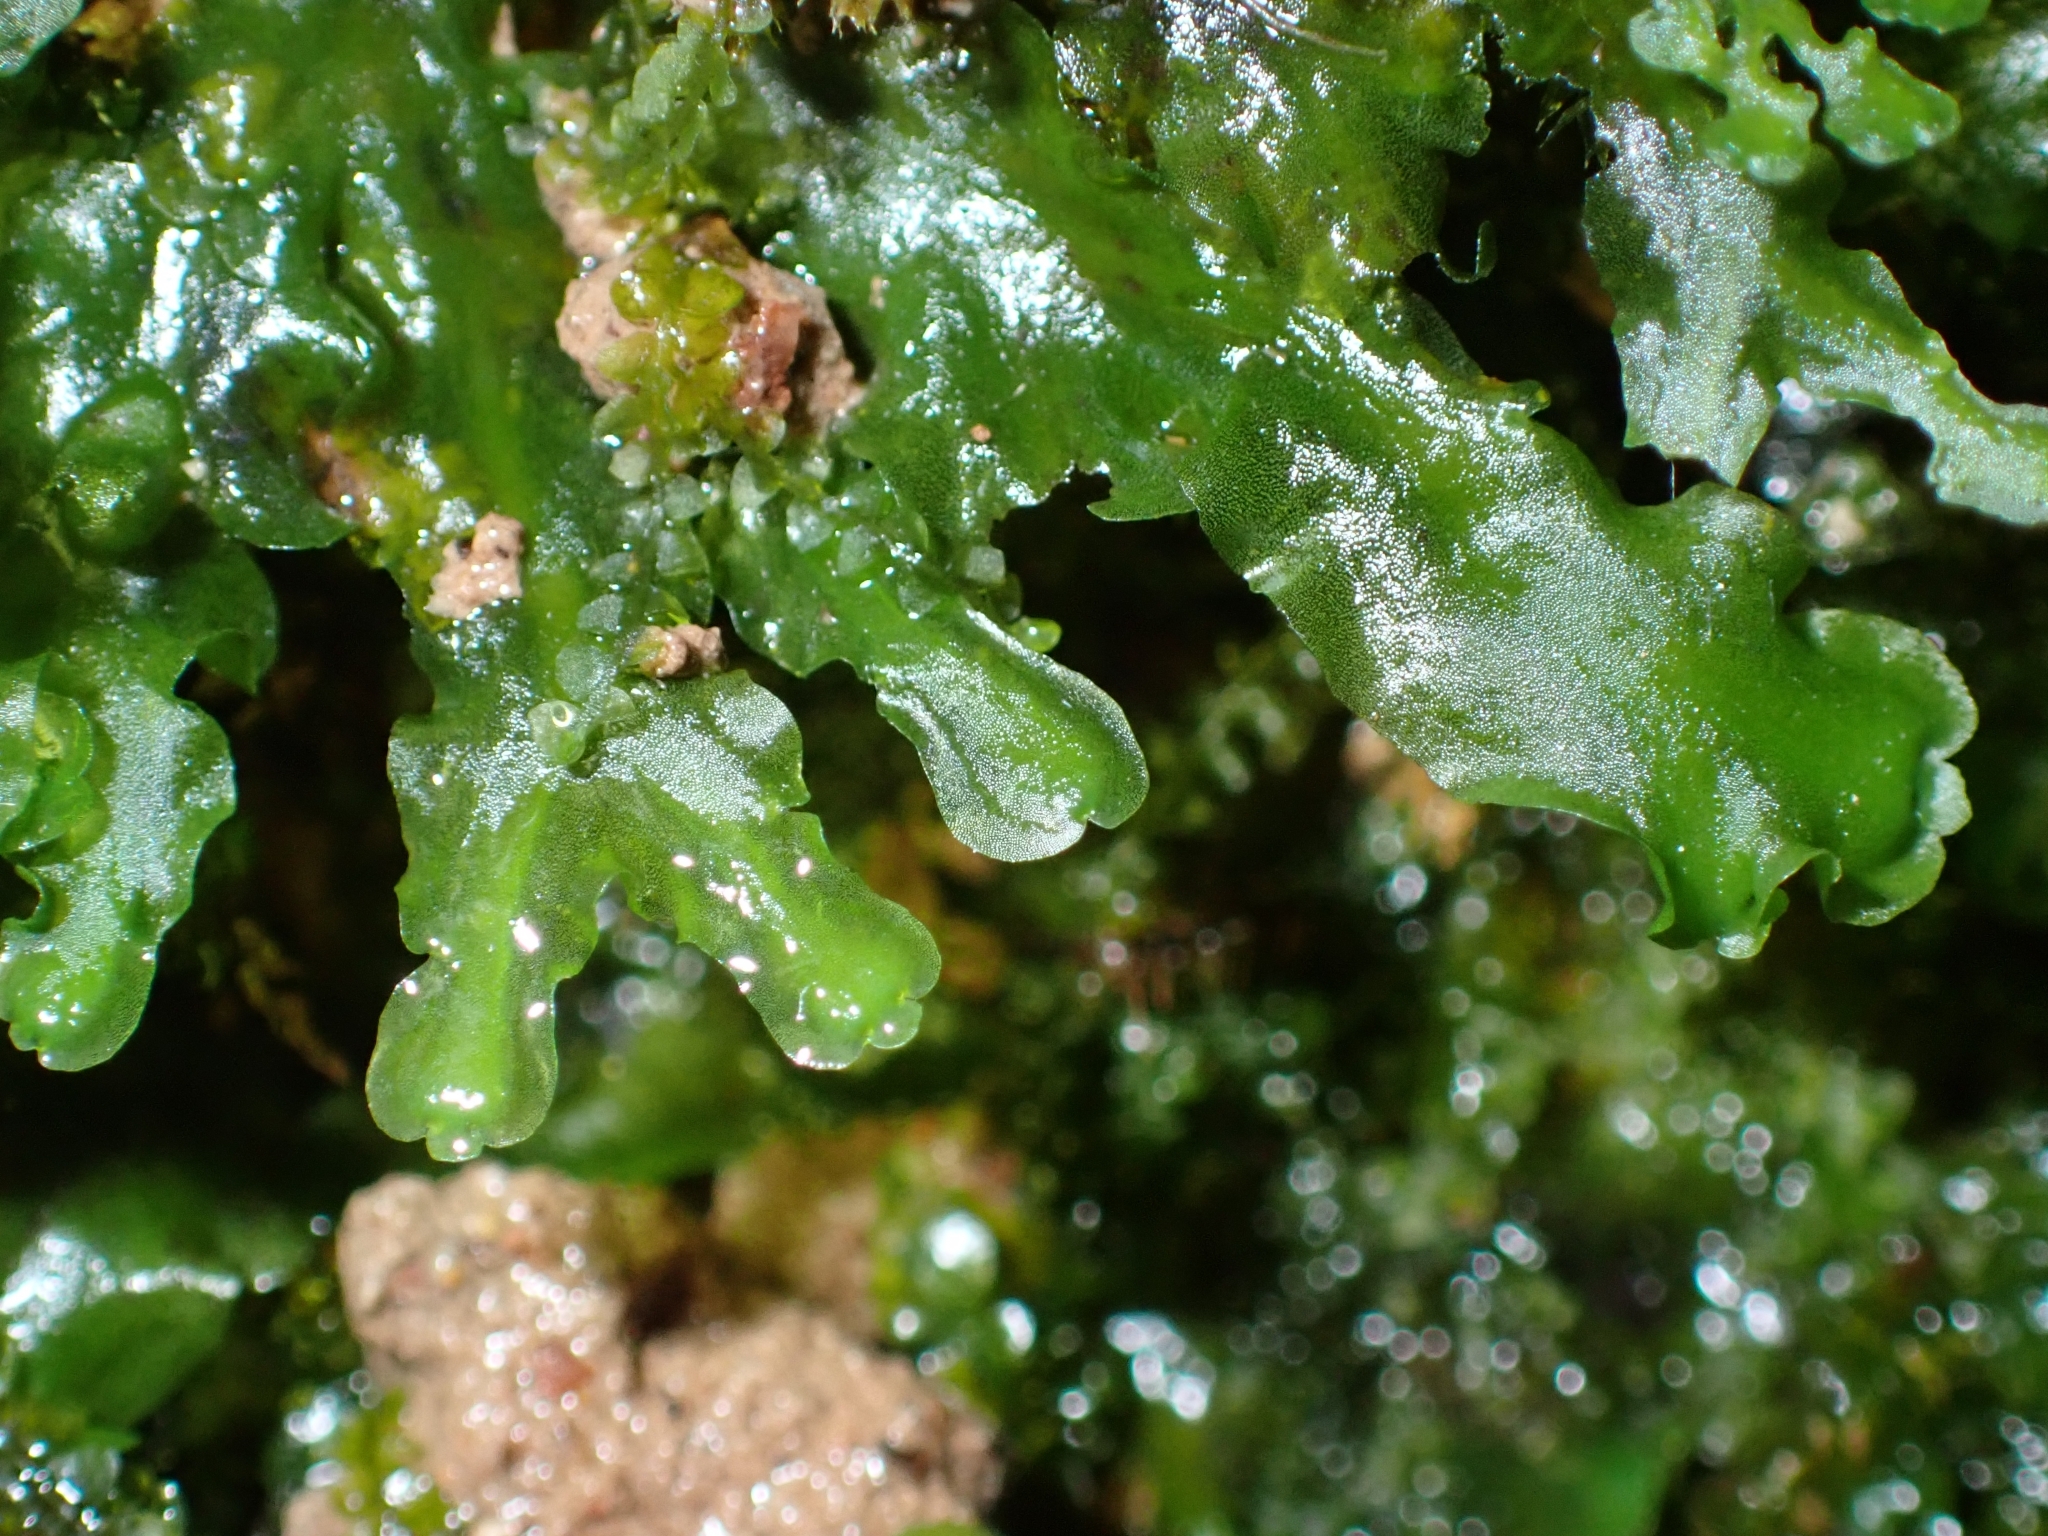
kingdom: Plantae
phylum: Marchantiophyta
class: Jungermanniopsida
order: Pelliales
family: Pelliaceae
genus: Apopellia
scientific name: Apopellia endiviifolia
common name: Endive pellia
